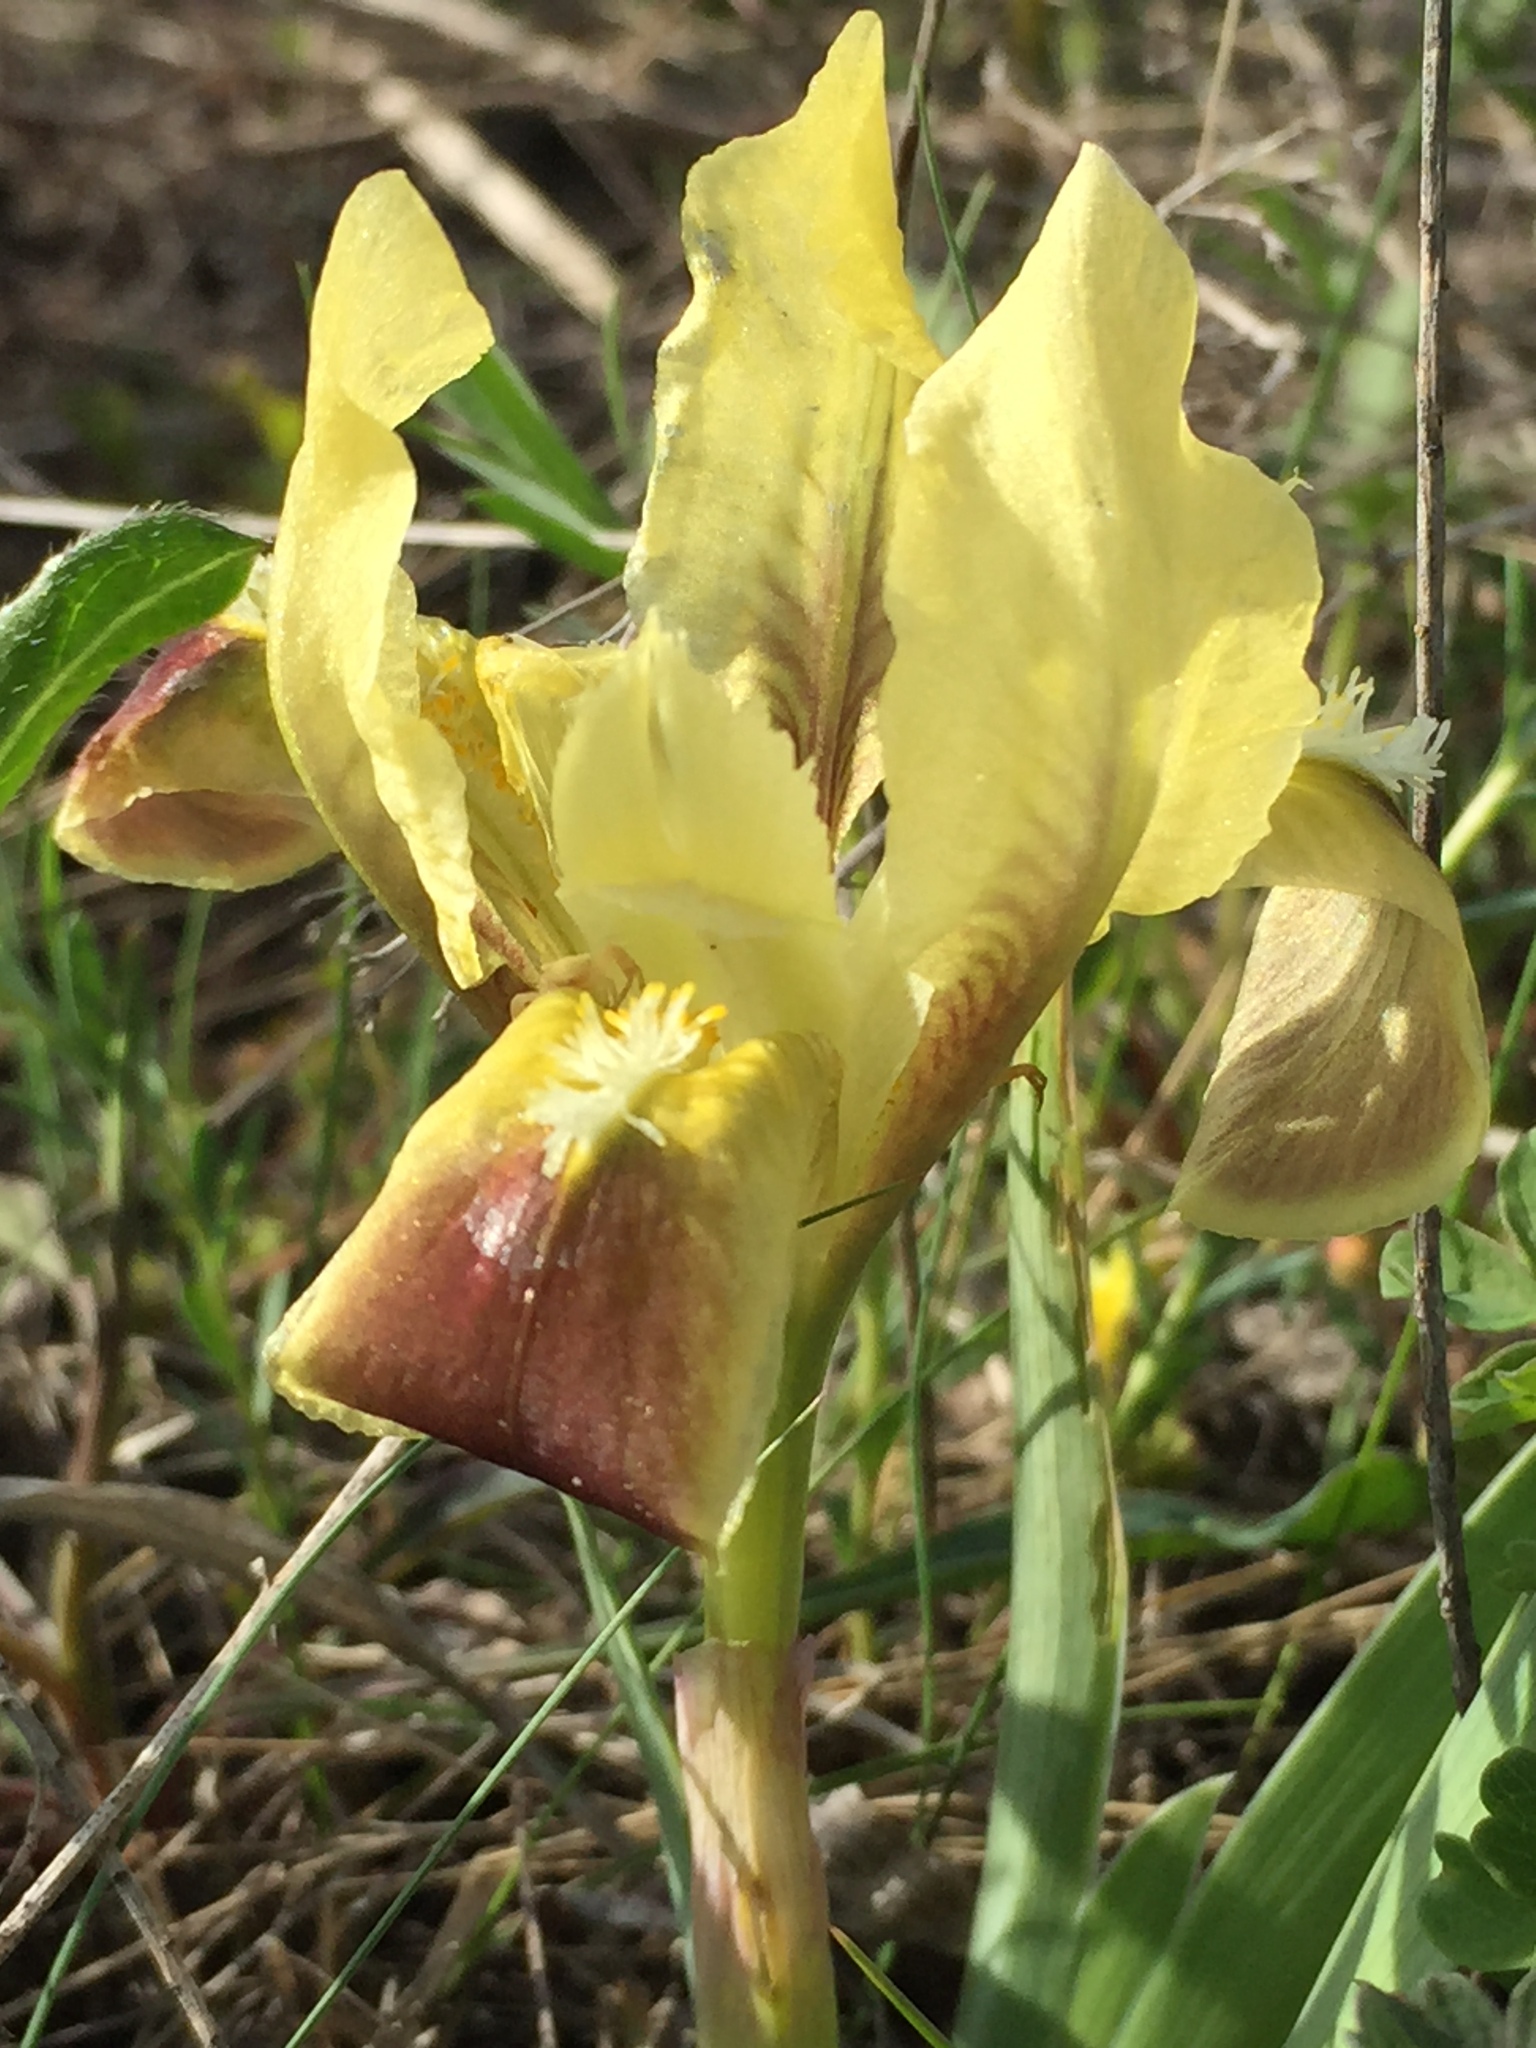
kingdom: Plantae
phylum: Tracheophyta
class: Liliopsida
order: Asparagales
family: Iridaceae
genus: Iris
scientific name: Iris pumila
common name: Dwarf iris
